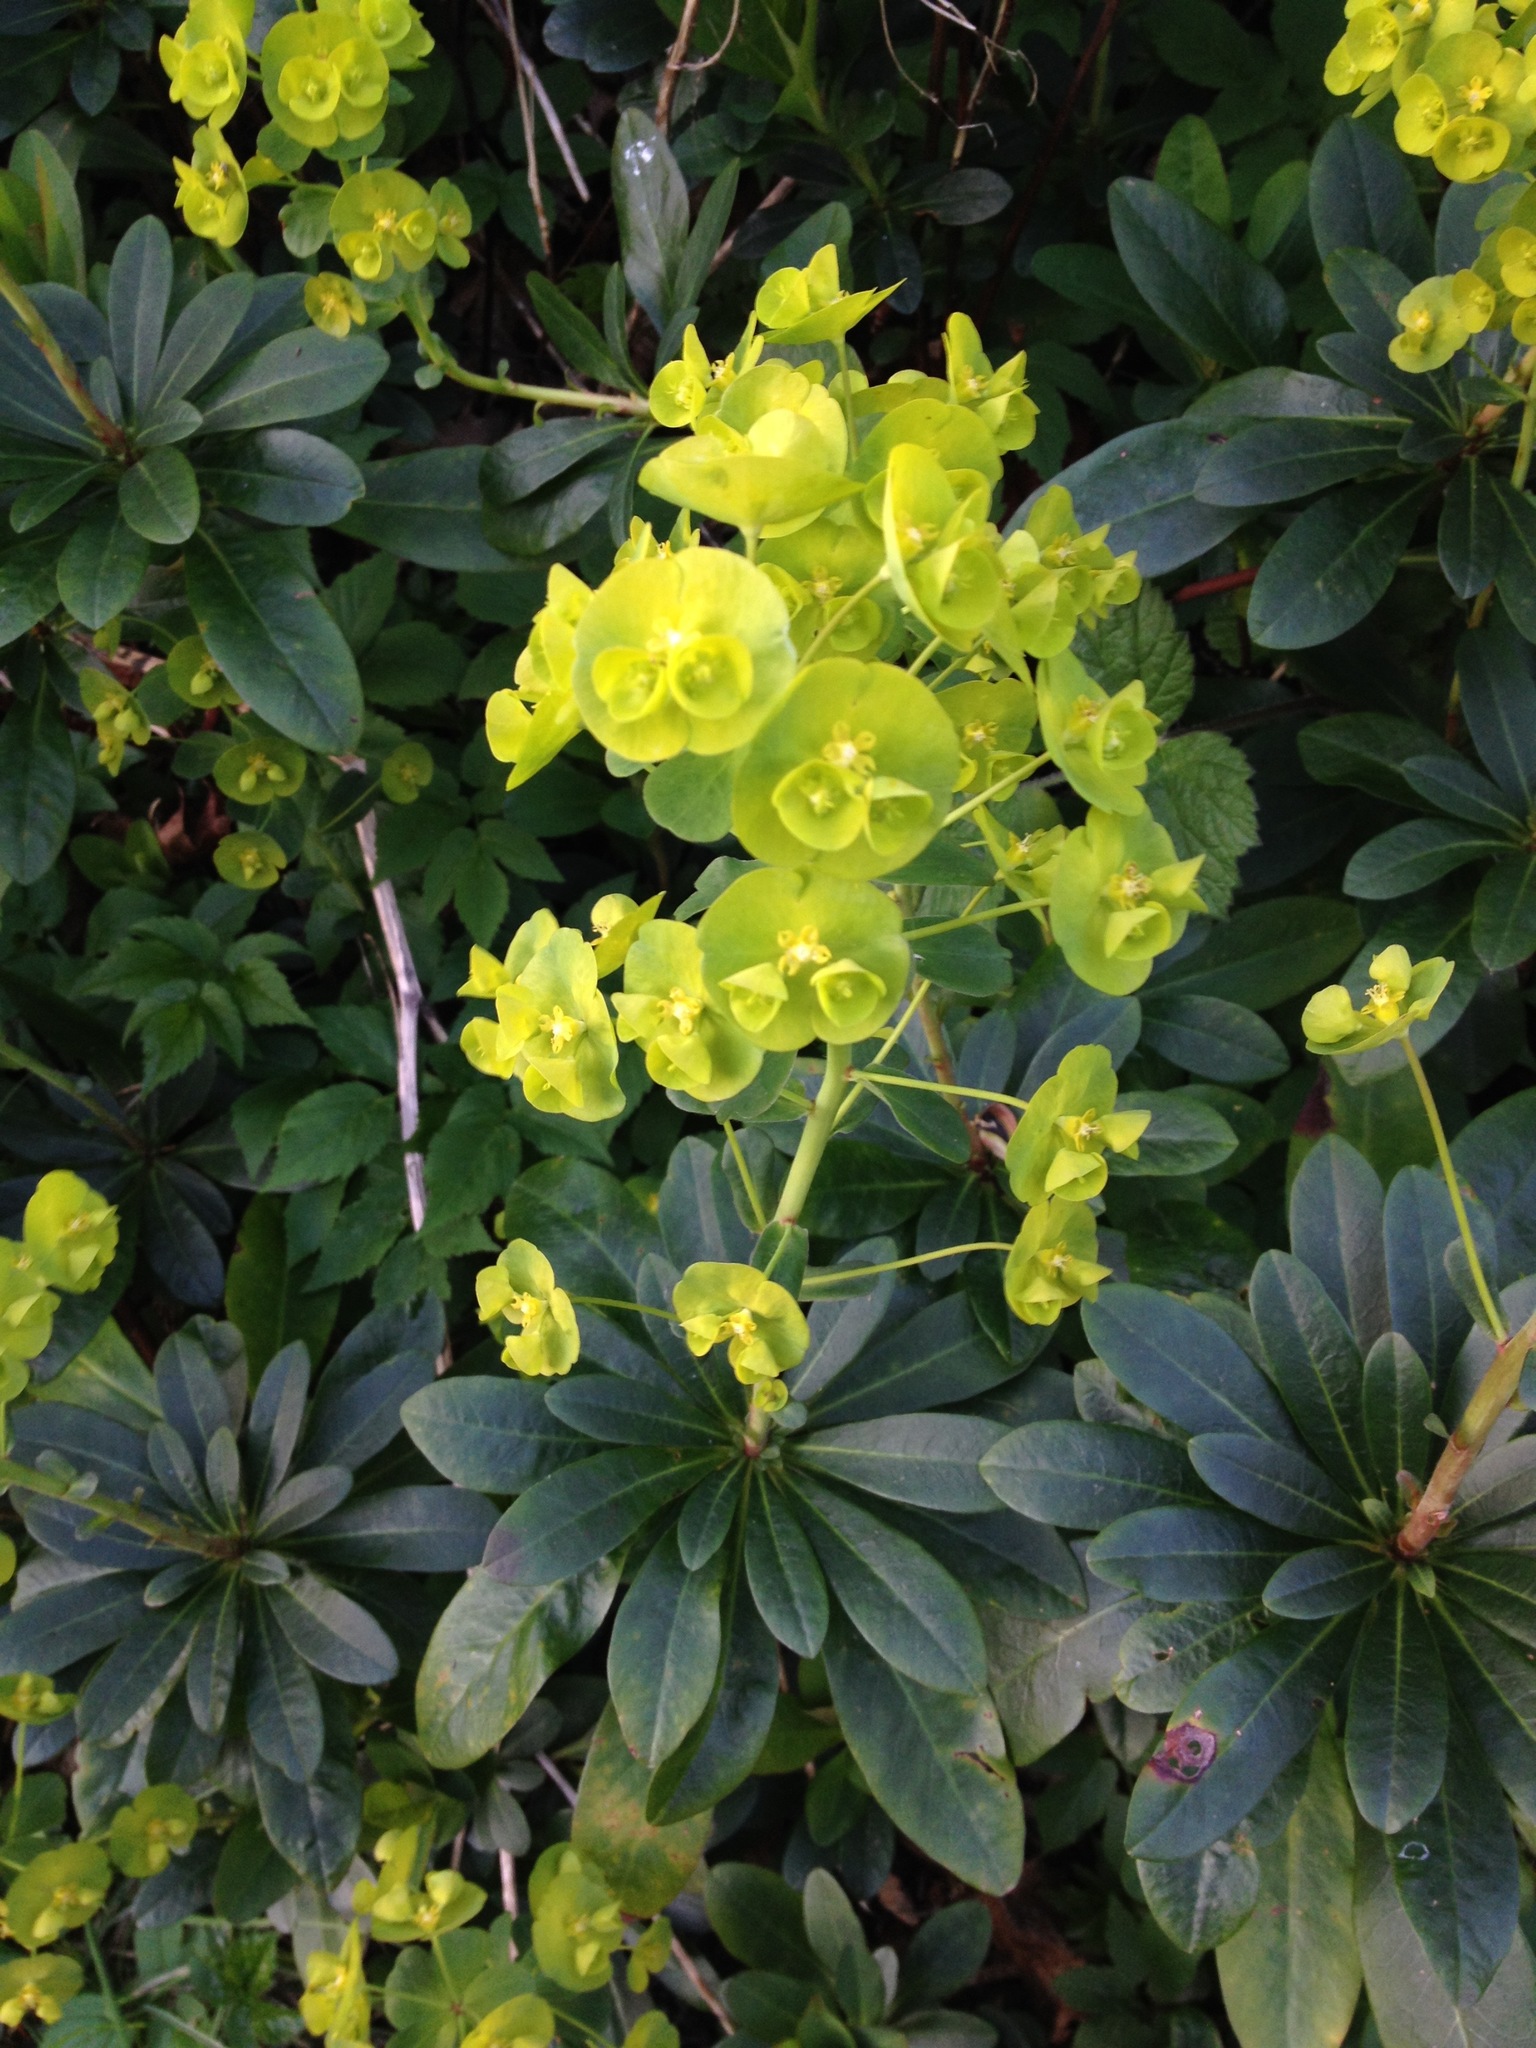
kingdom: Plantae
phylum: Tracheophyta
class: Magnoliopsida
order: Malpighiales
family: Euphorbiaceae
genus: Euphorbia
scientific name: Euphorbia amygdaloides
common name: Wood spurge
